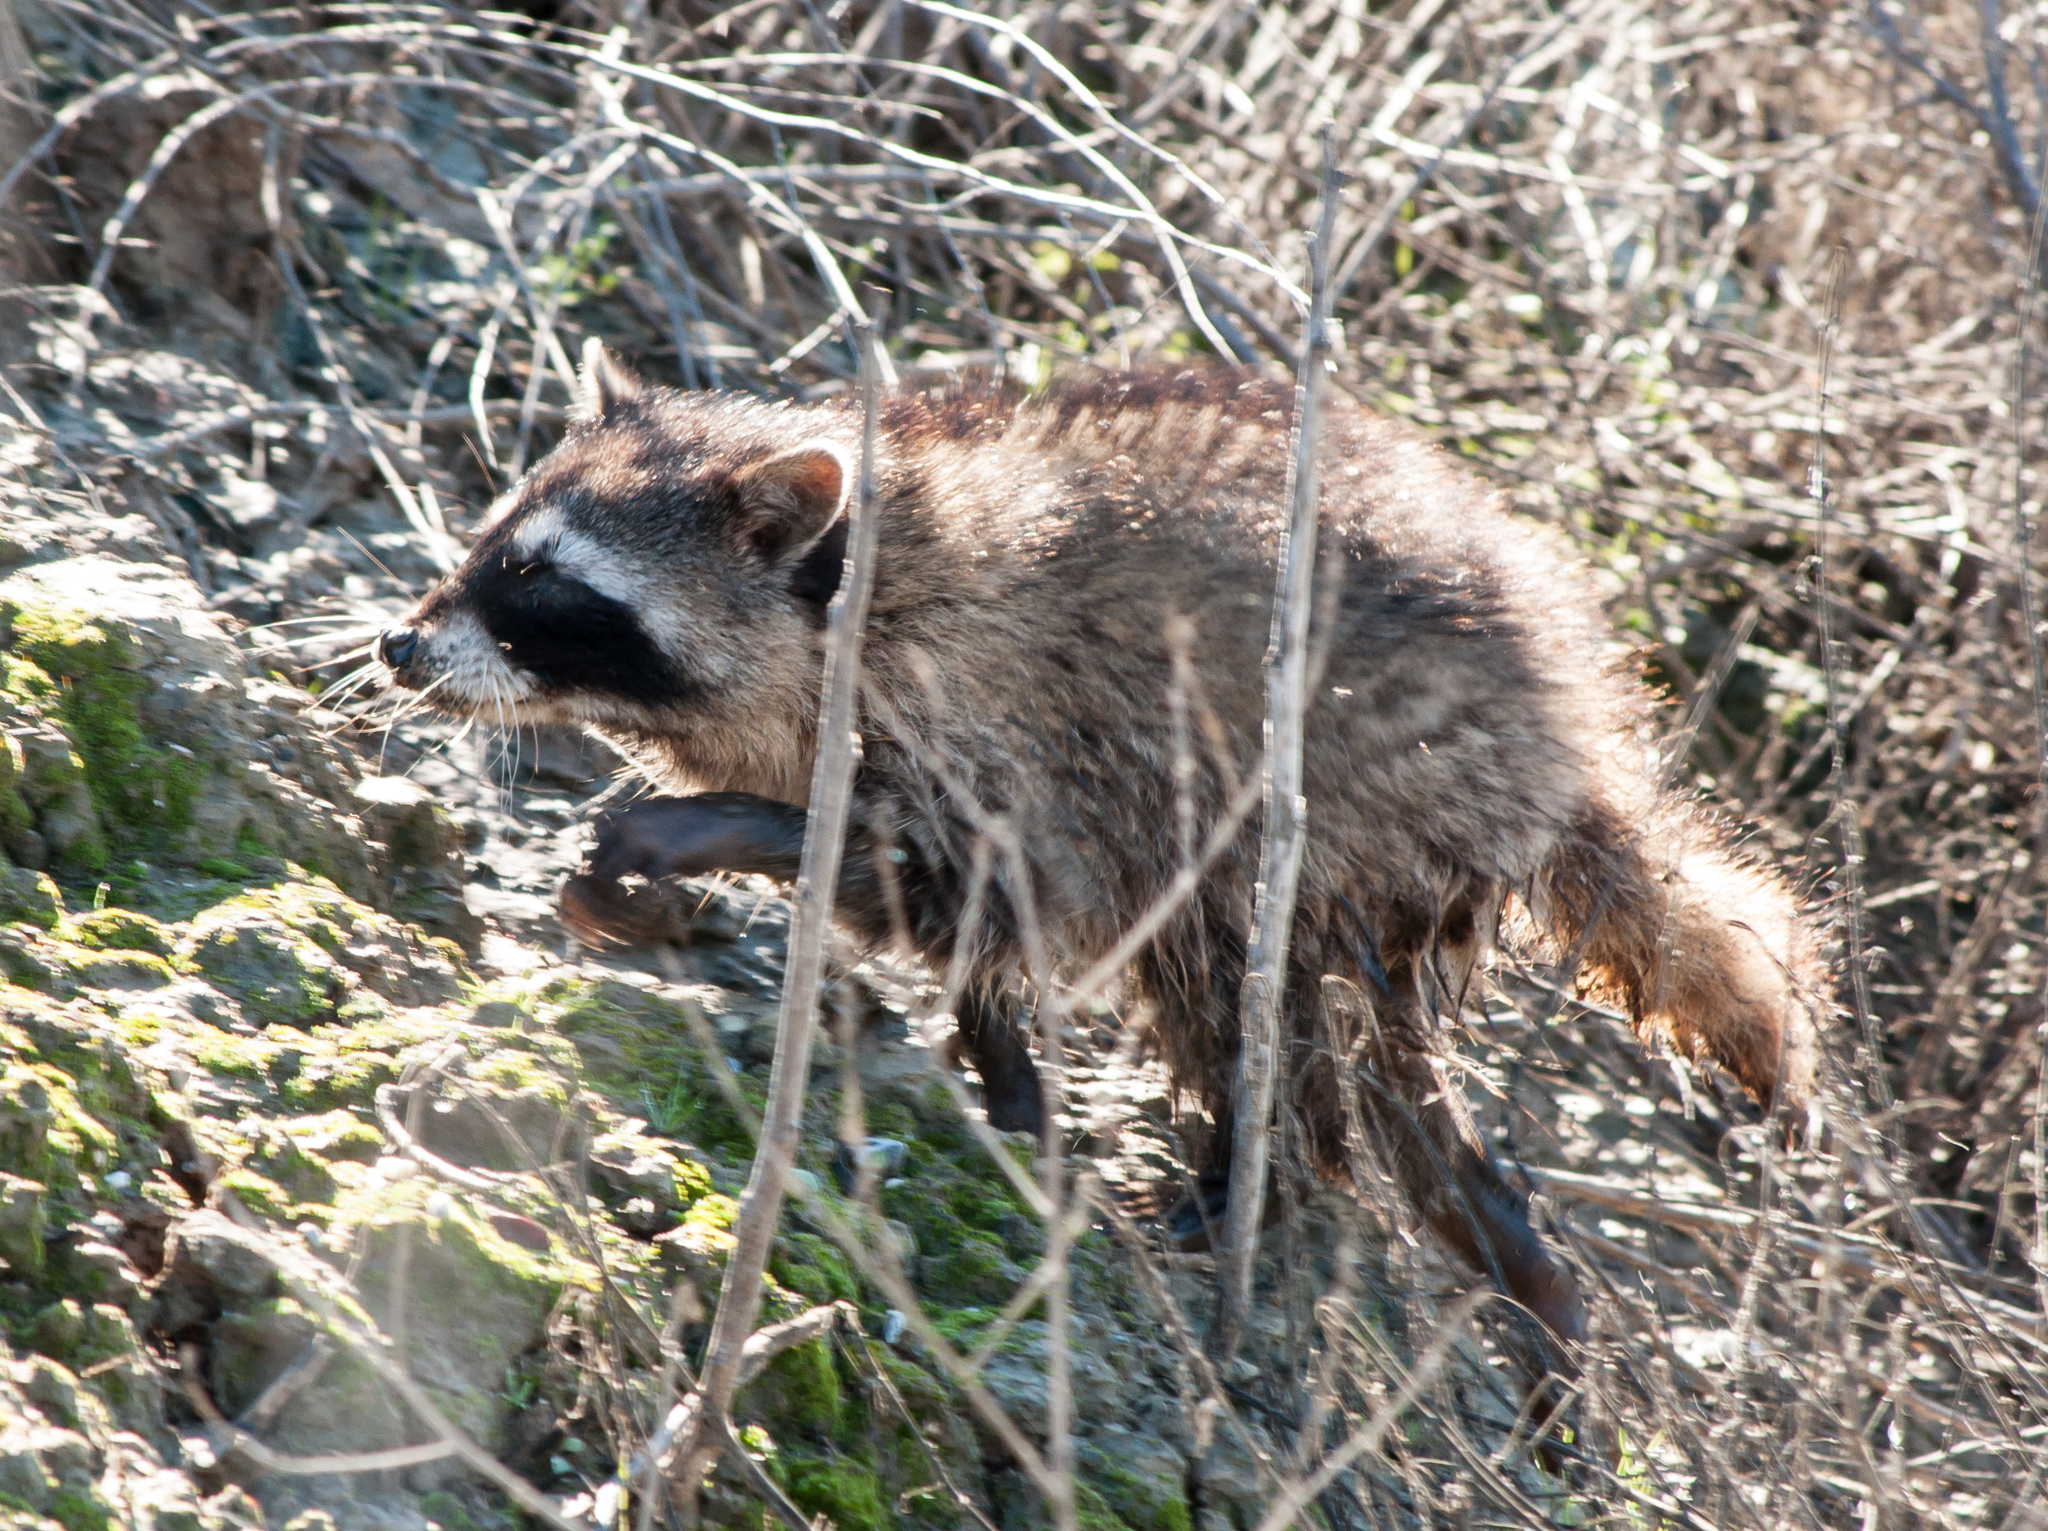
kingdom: Animalia
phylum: Chordata
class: Mammalia
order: Carnivora
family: Procyonidae
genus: Procyon
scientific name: Procyon lotor
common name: Raccoon
